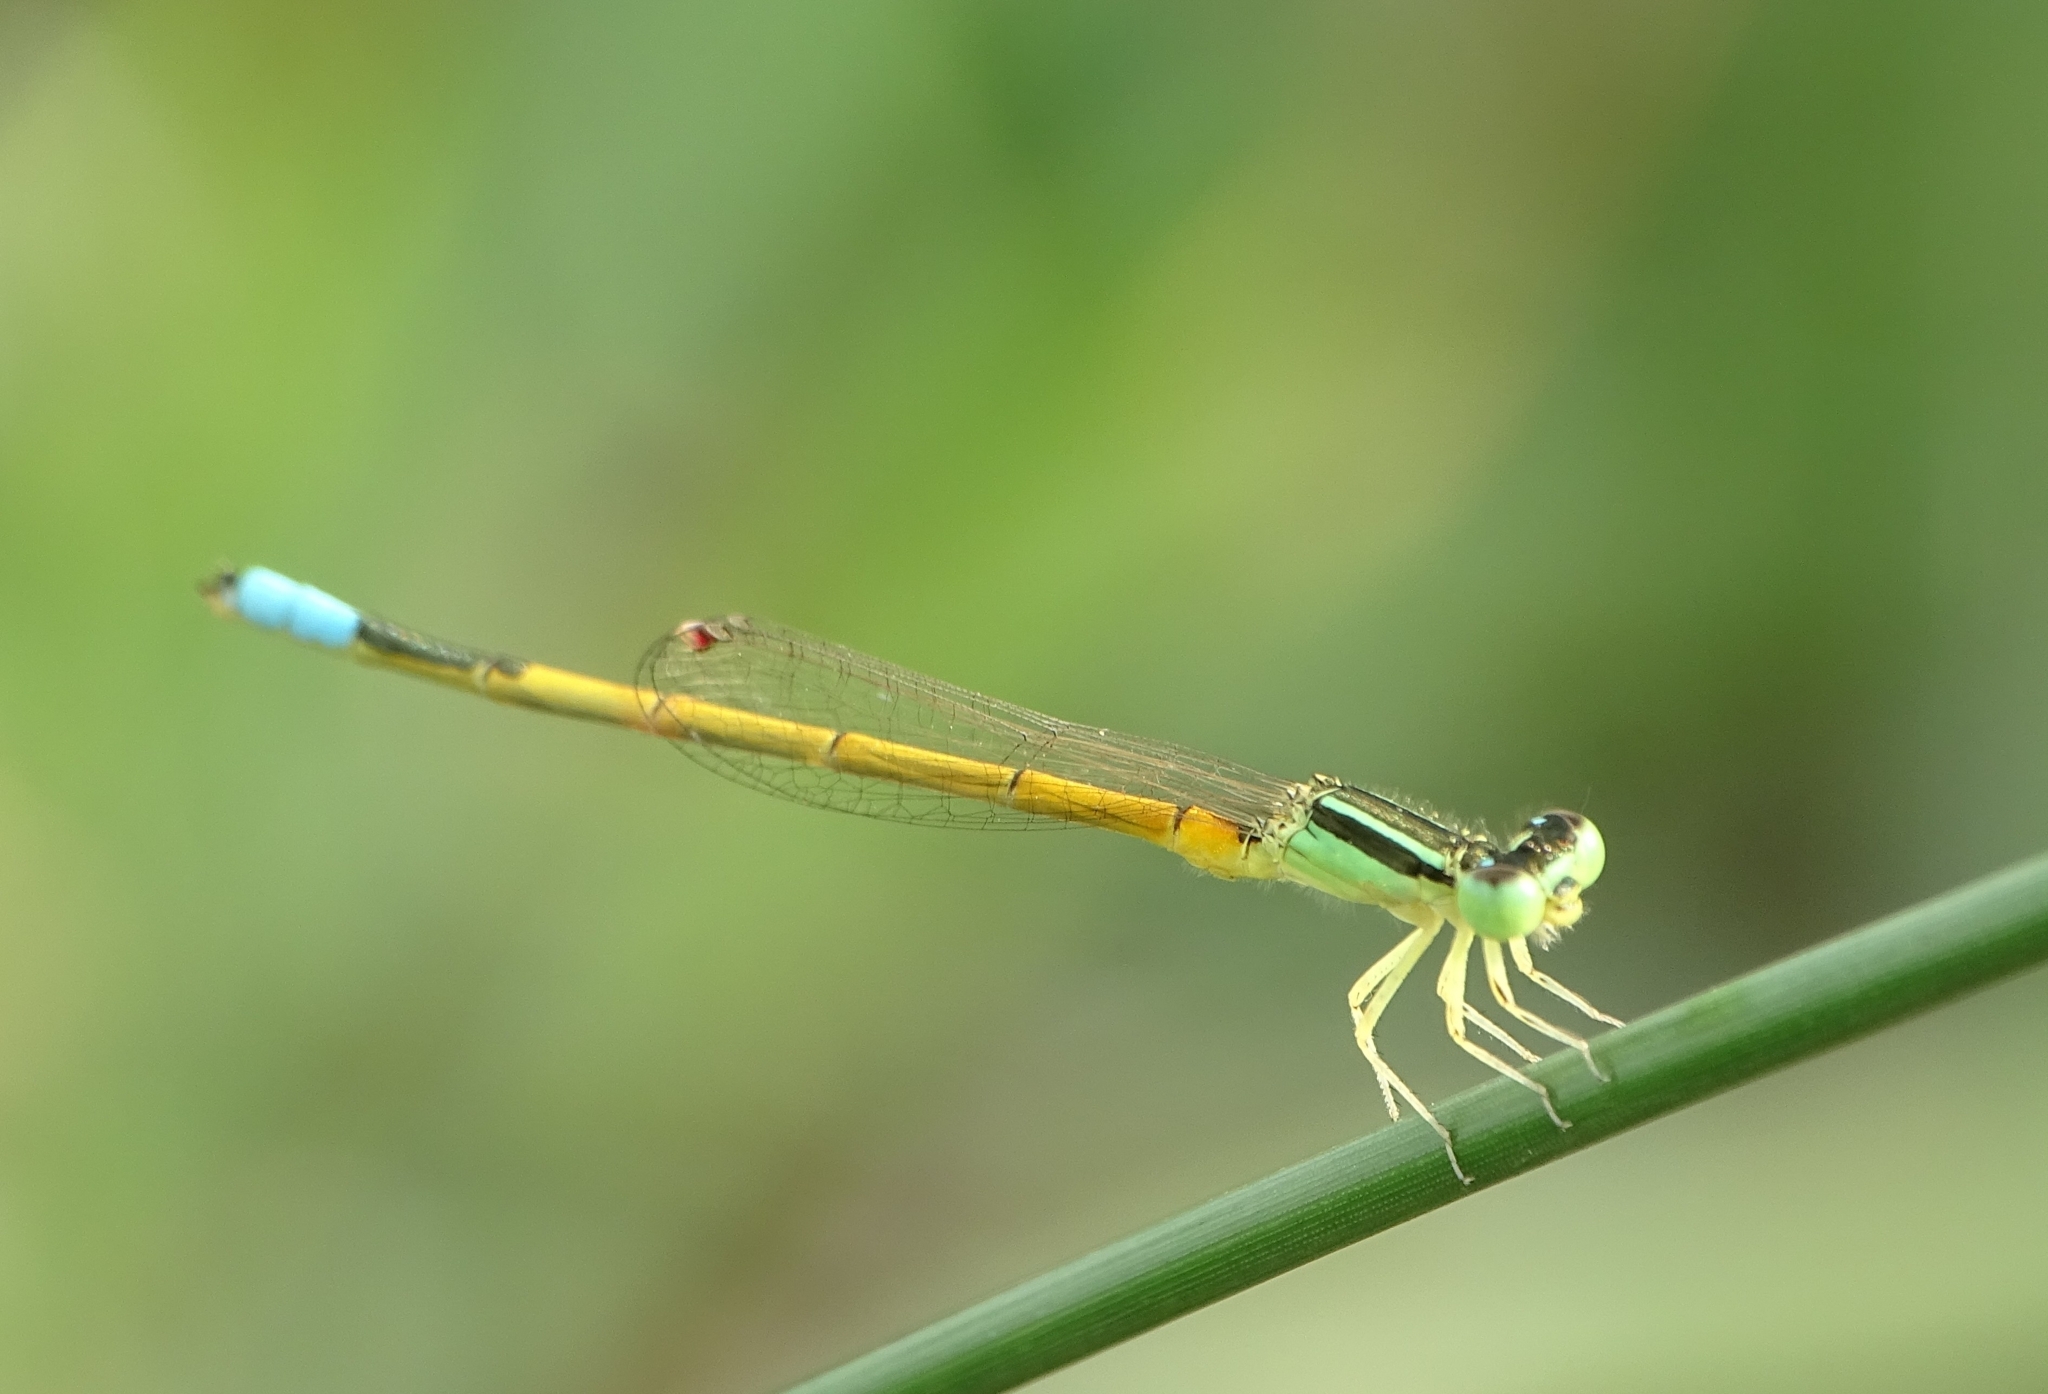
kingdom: Animalia
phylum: Arthropoda
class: Insecta
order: Odonata
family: Coenagrionidae
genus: Ischnura
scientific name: Ischnura rubilio
